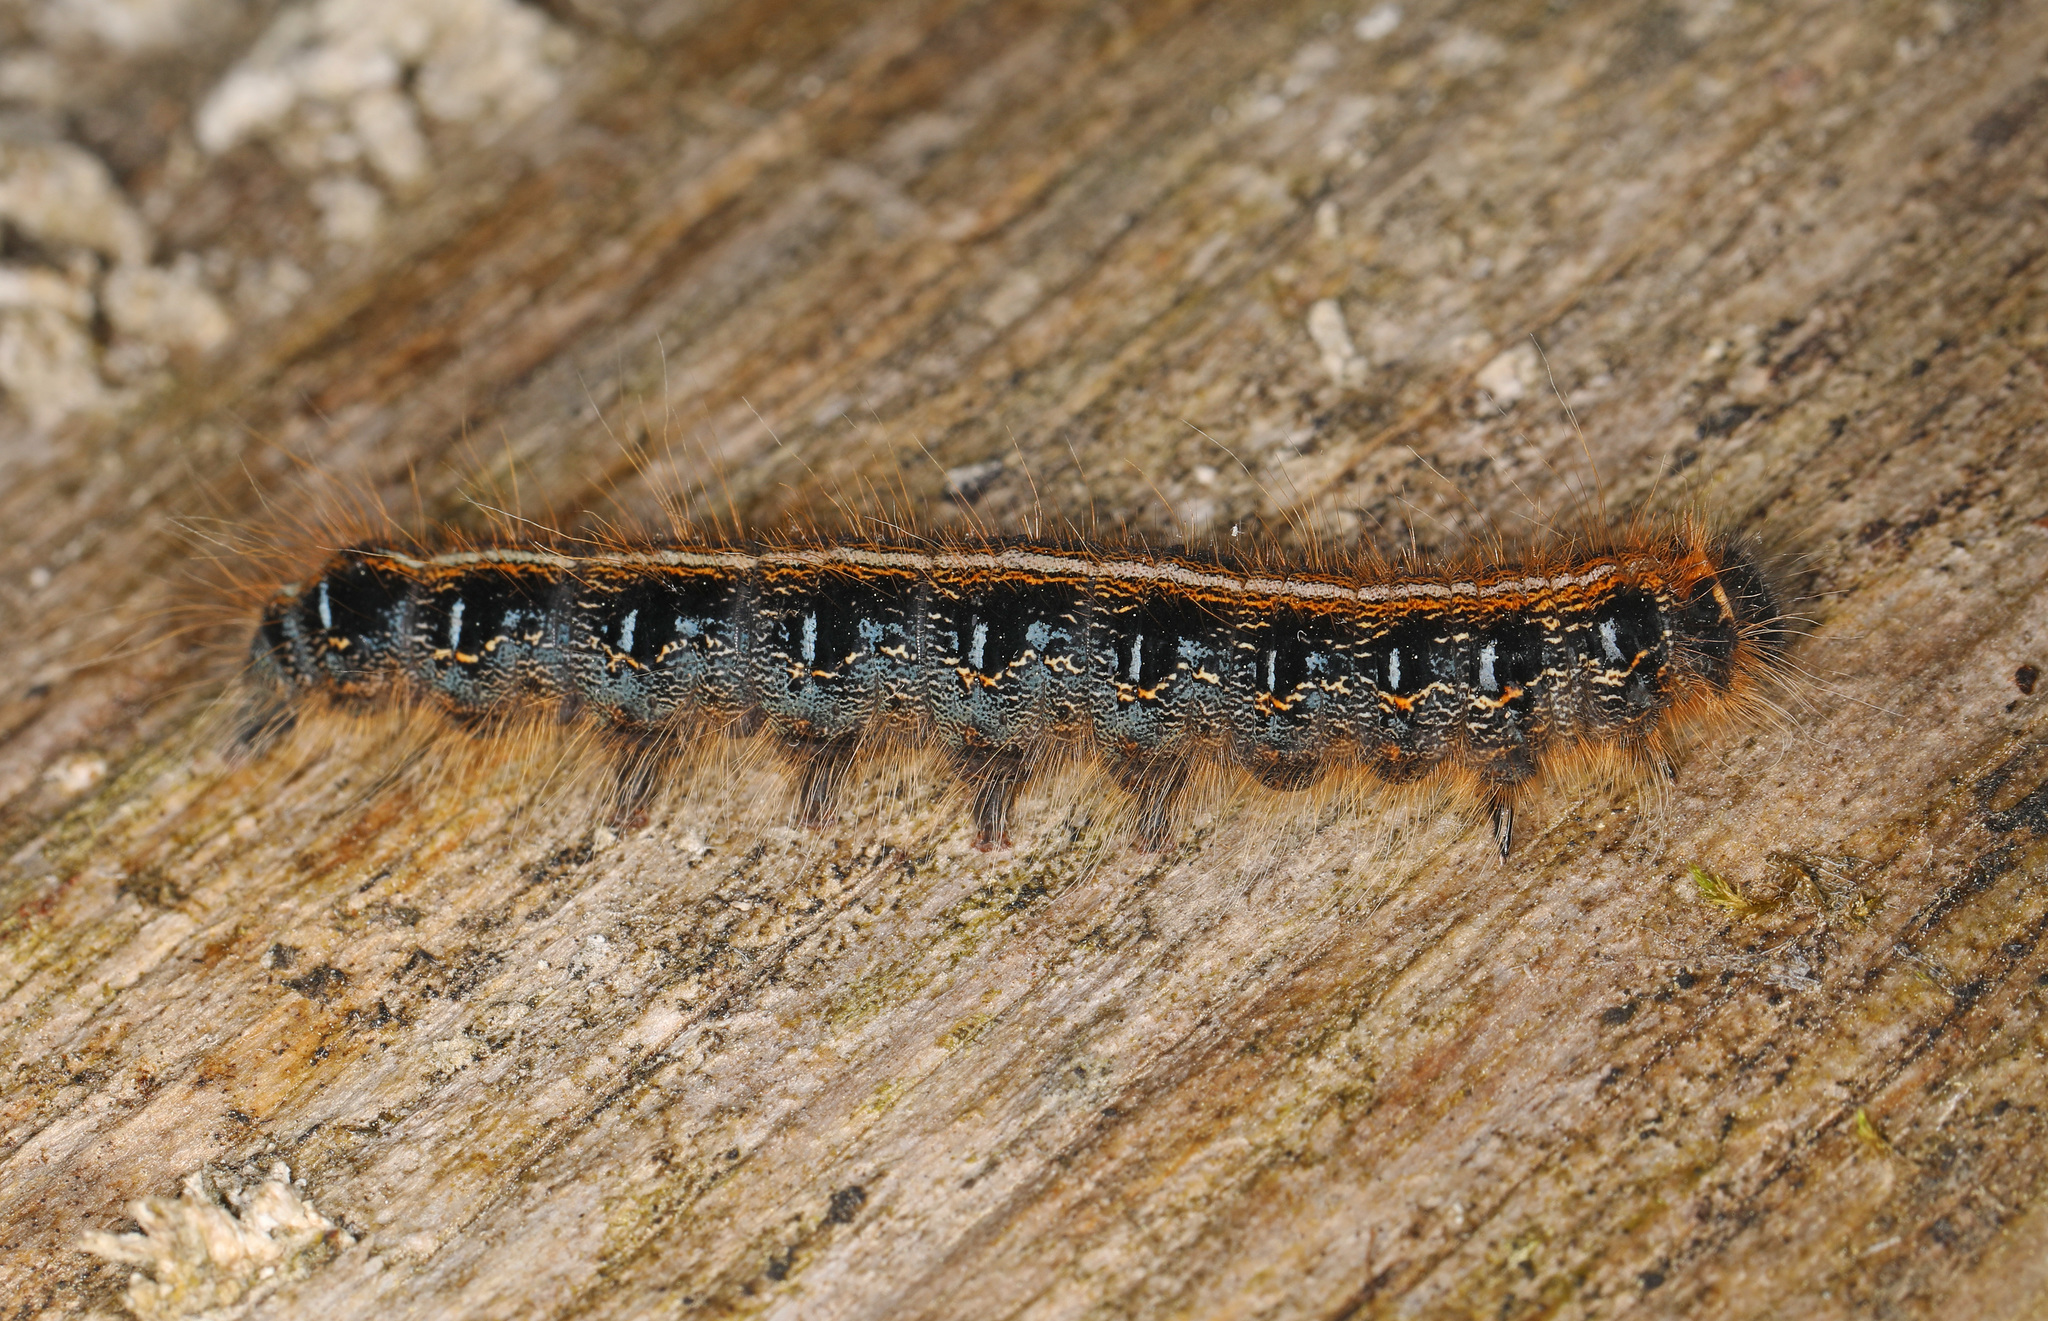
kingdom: Animalia
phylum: Arthropoda
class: Insecta
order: Lepidoptera
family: Lasiocampidae
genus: Malacosoma
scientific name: Malacosoma americana
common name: Eastern tent caterpillar moth
